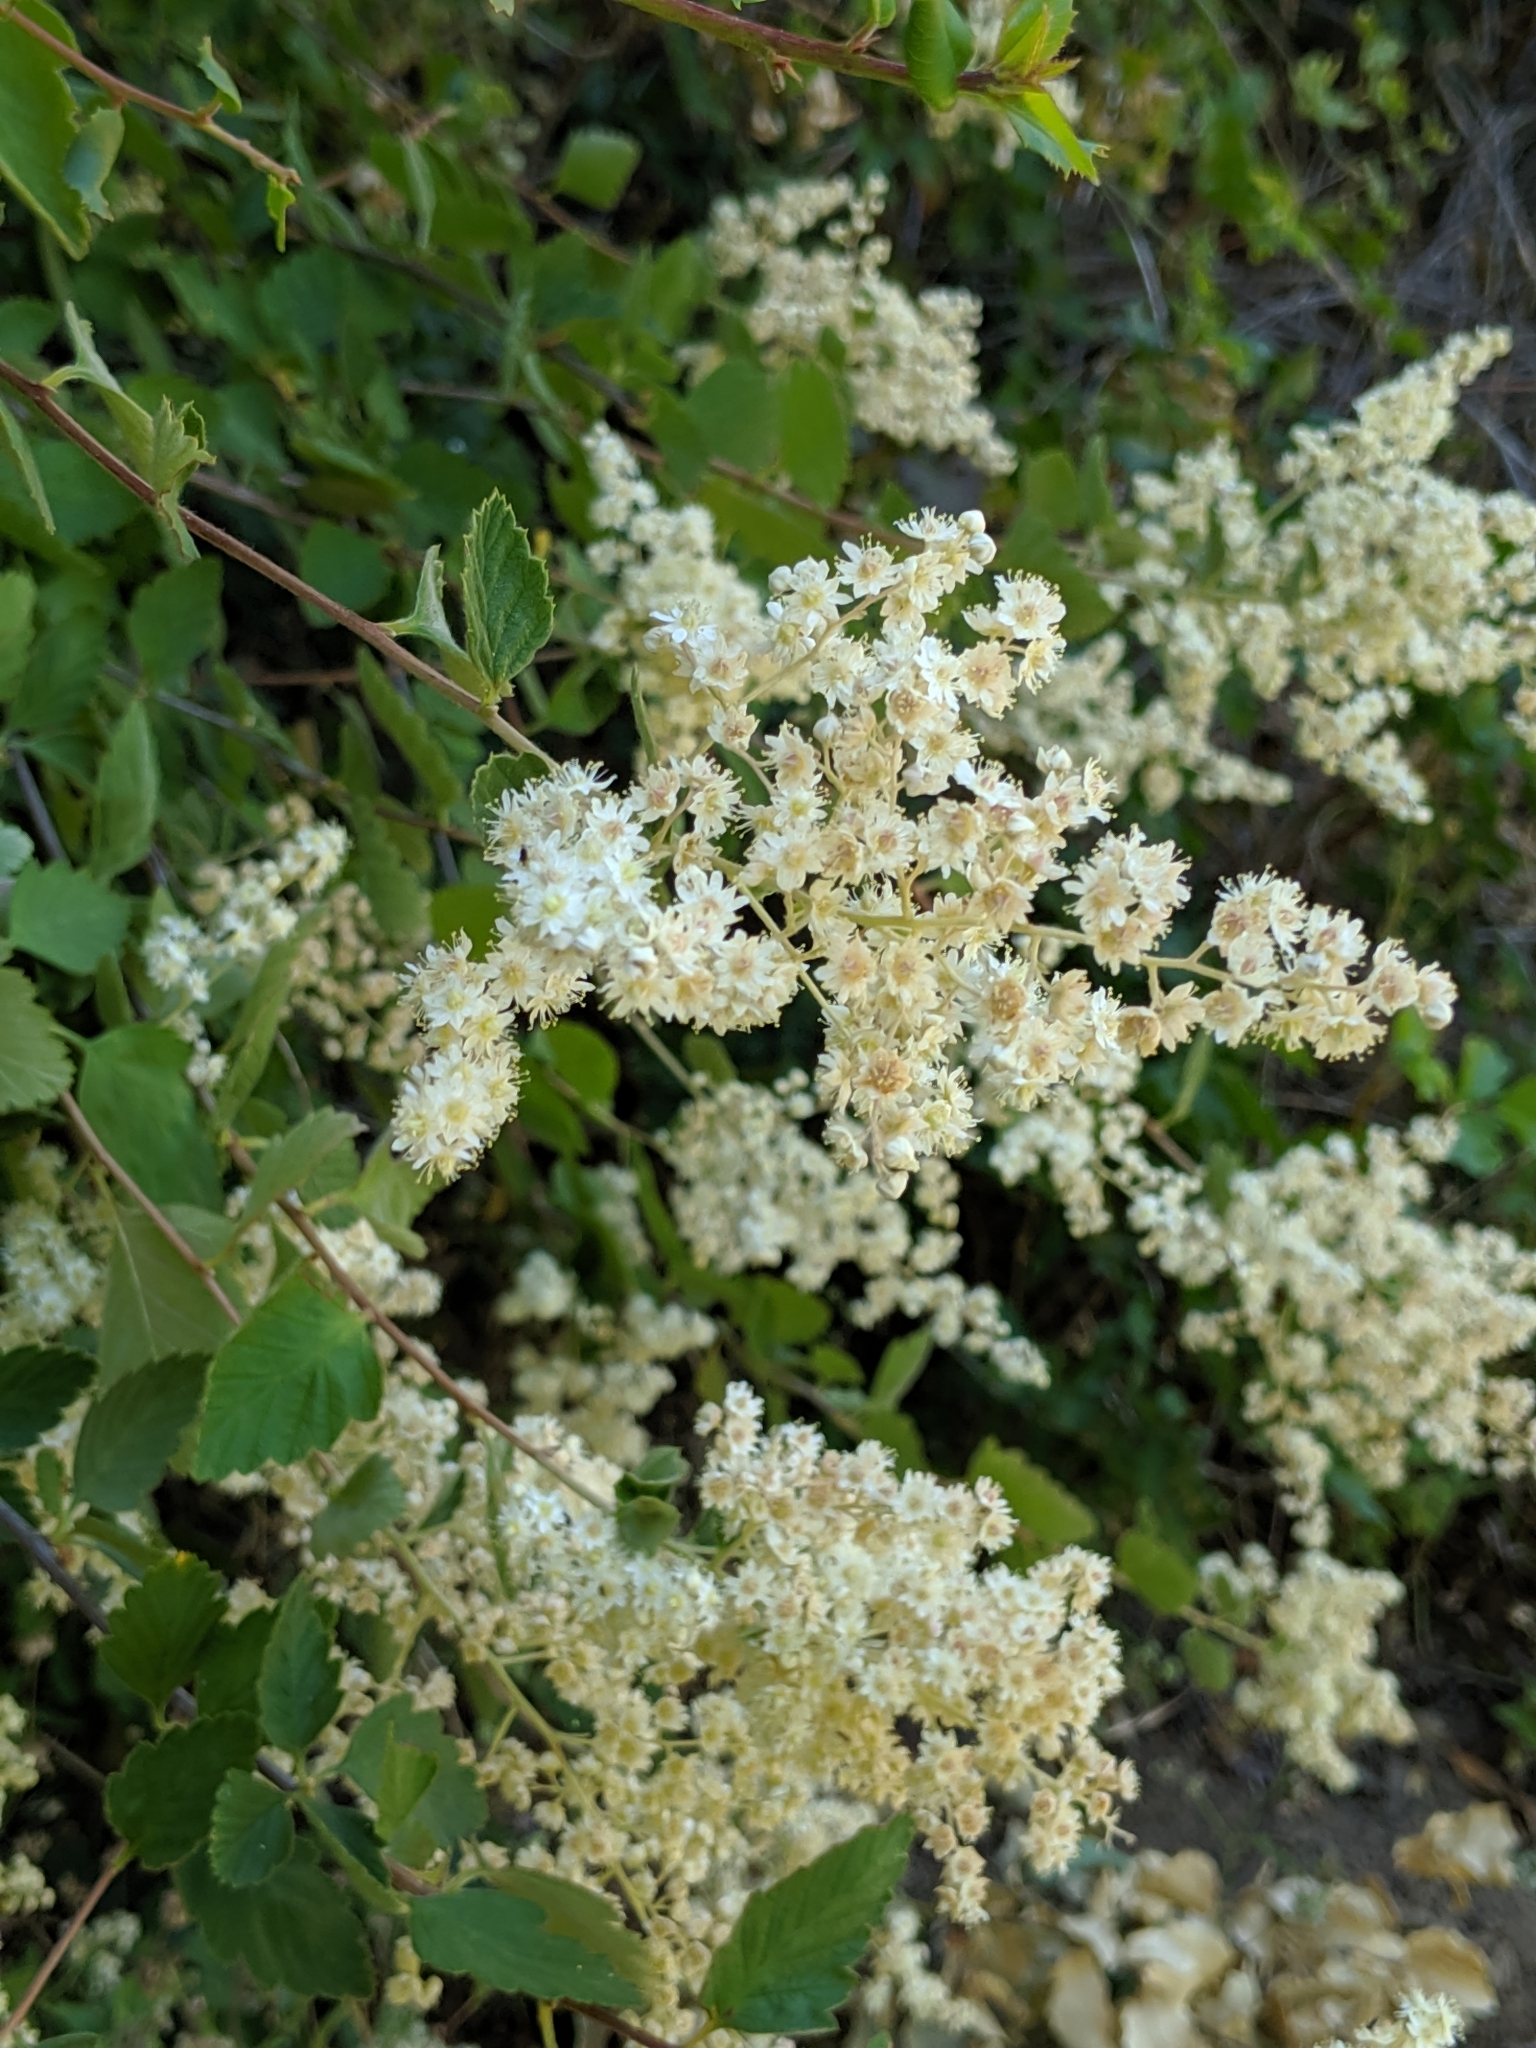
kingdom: Plantae
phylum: Tracheophyta
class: Magnoliopsida
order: Rosales
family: Rosaceae
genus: Holodiscus
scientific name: Holodiscus discolor
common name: Oceanspray
